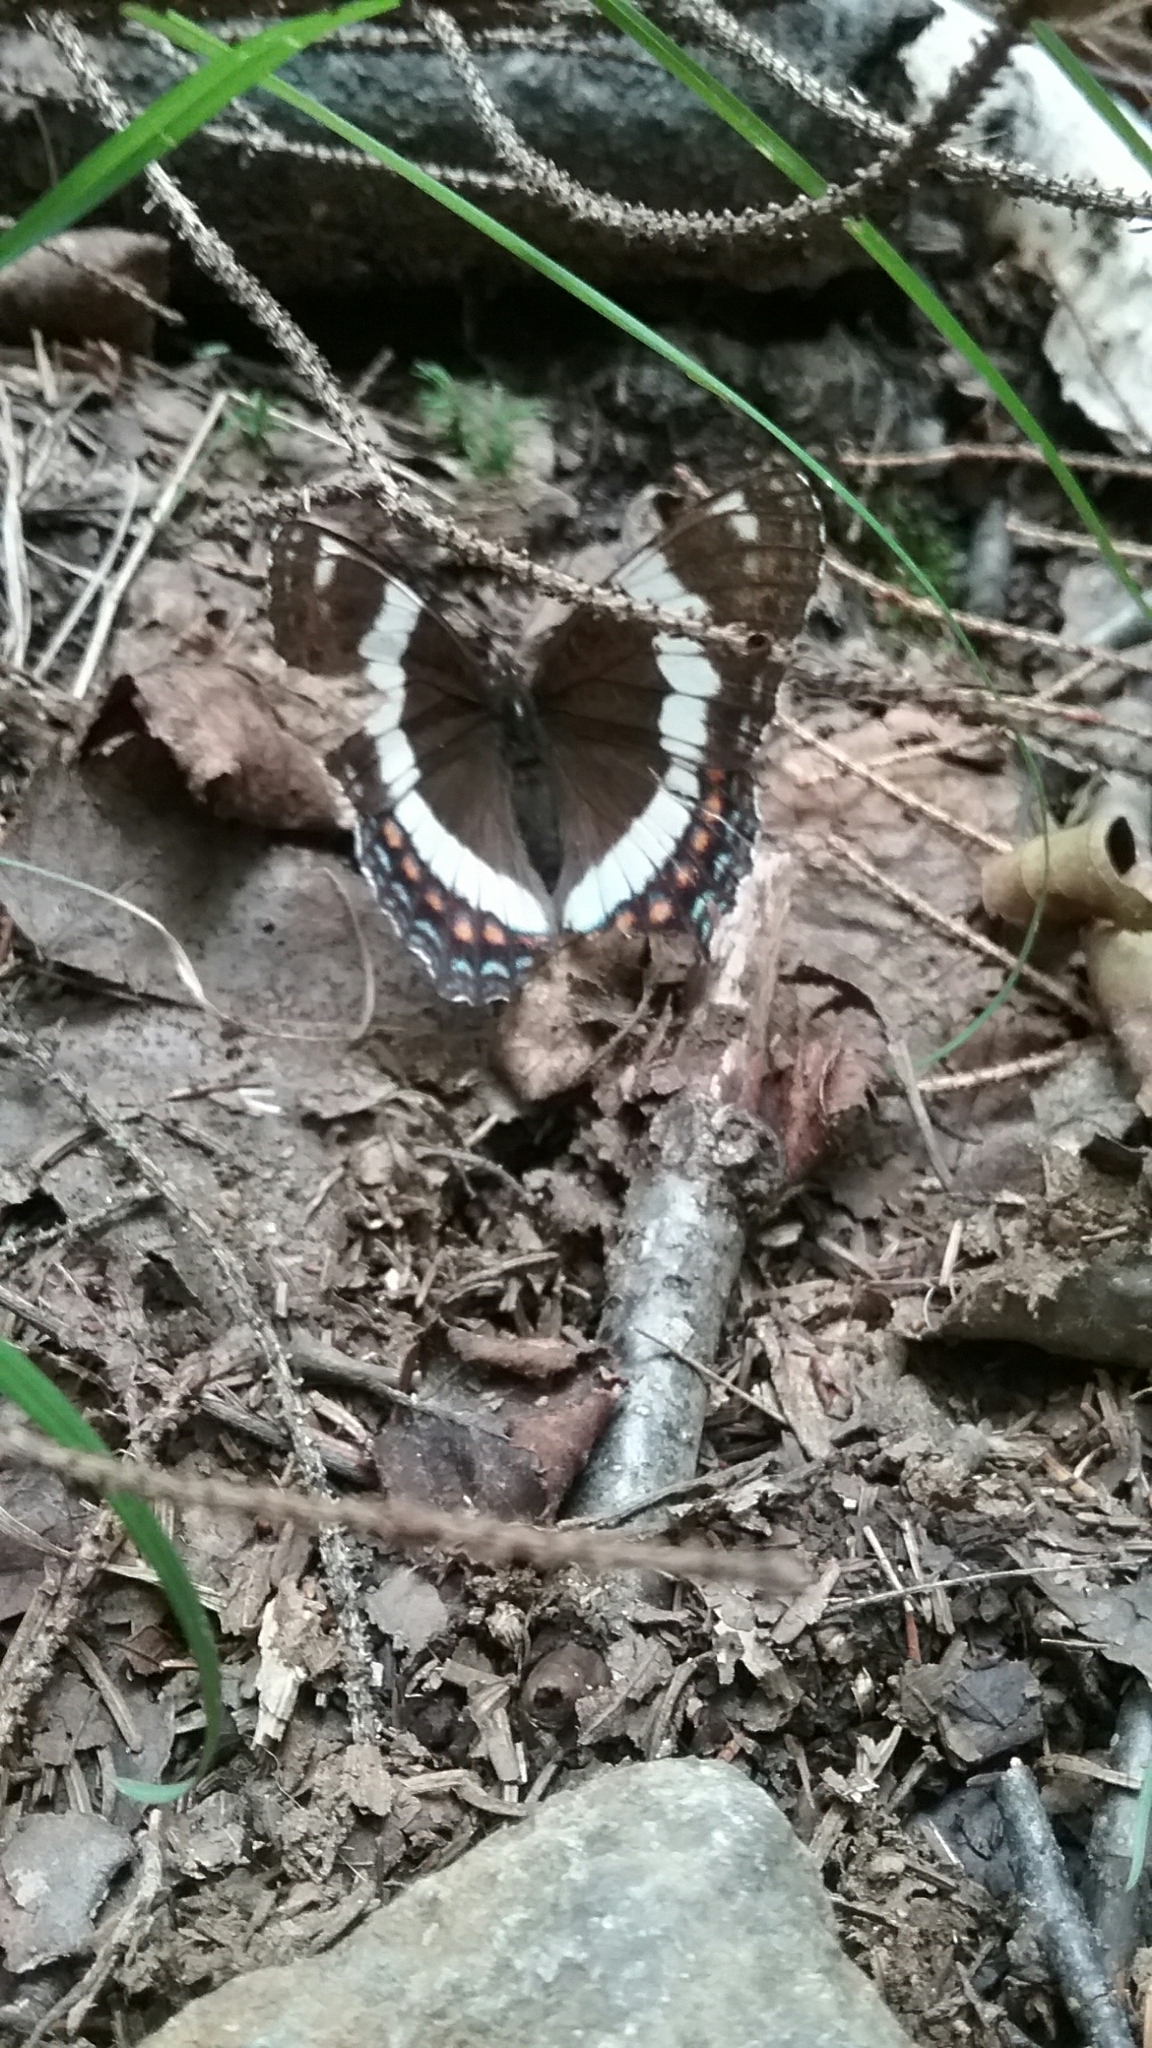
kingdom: Animalia
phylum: Arthropoda
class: Insecta
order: Lepidoptera
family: Nymphalidae
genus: Limenitis
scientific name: Limenitis arthemis
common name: Red-spotted admiral
